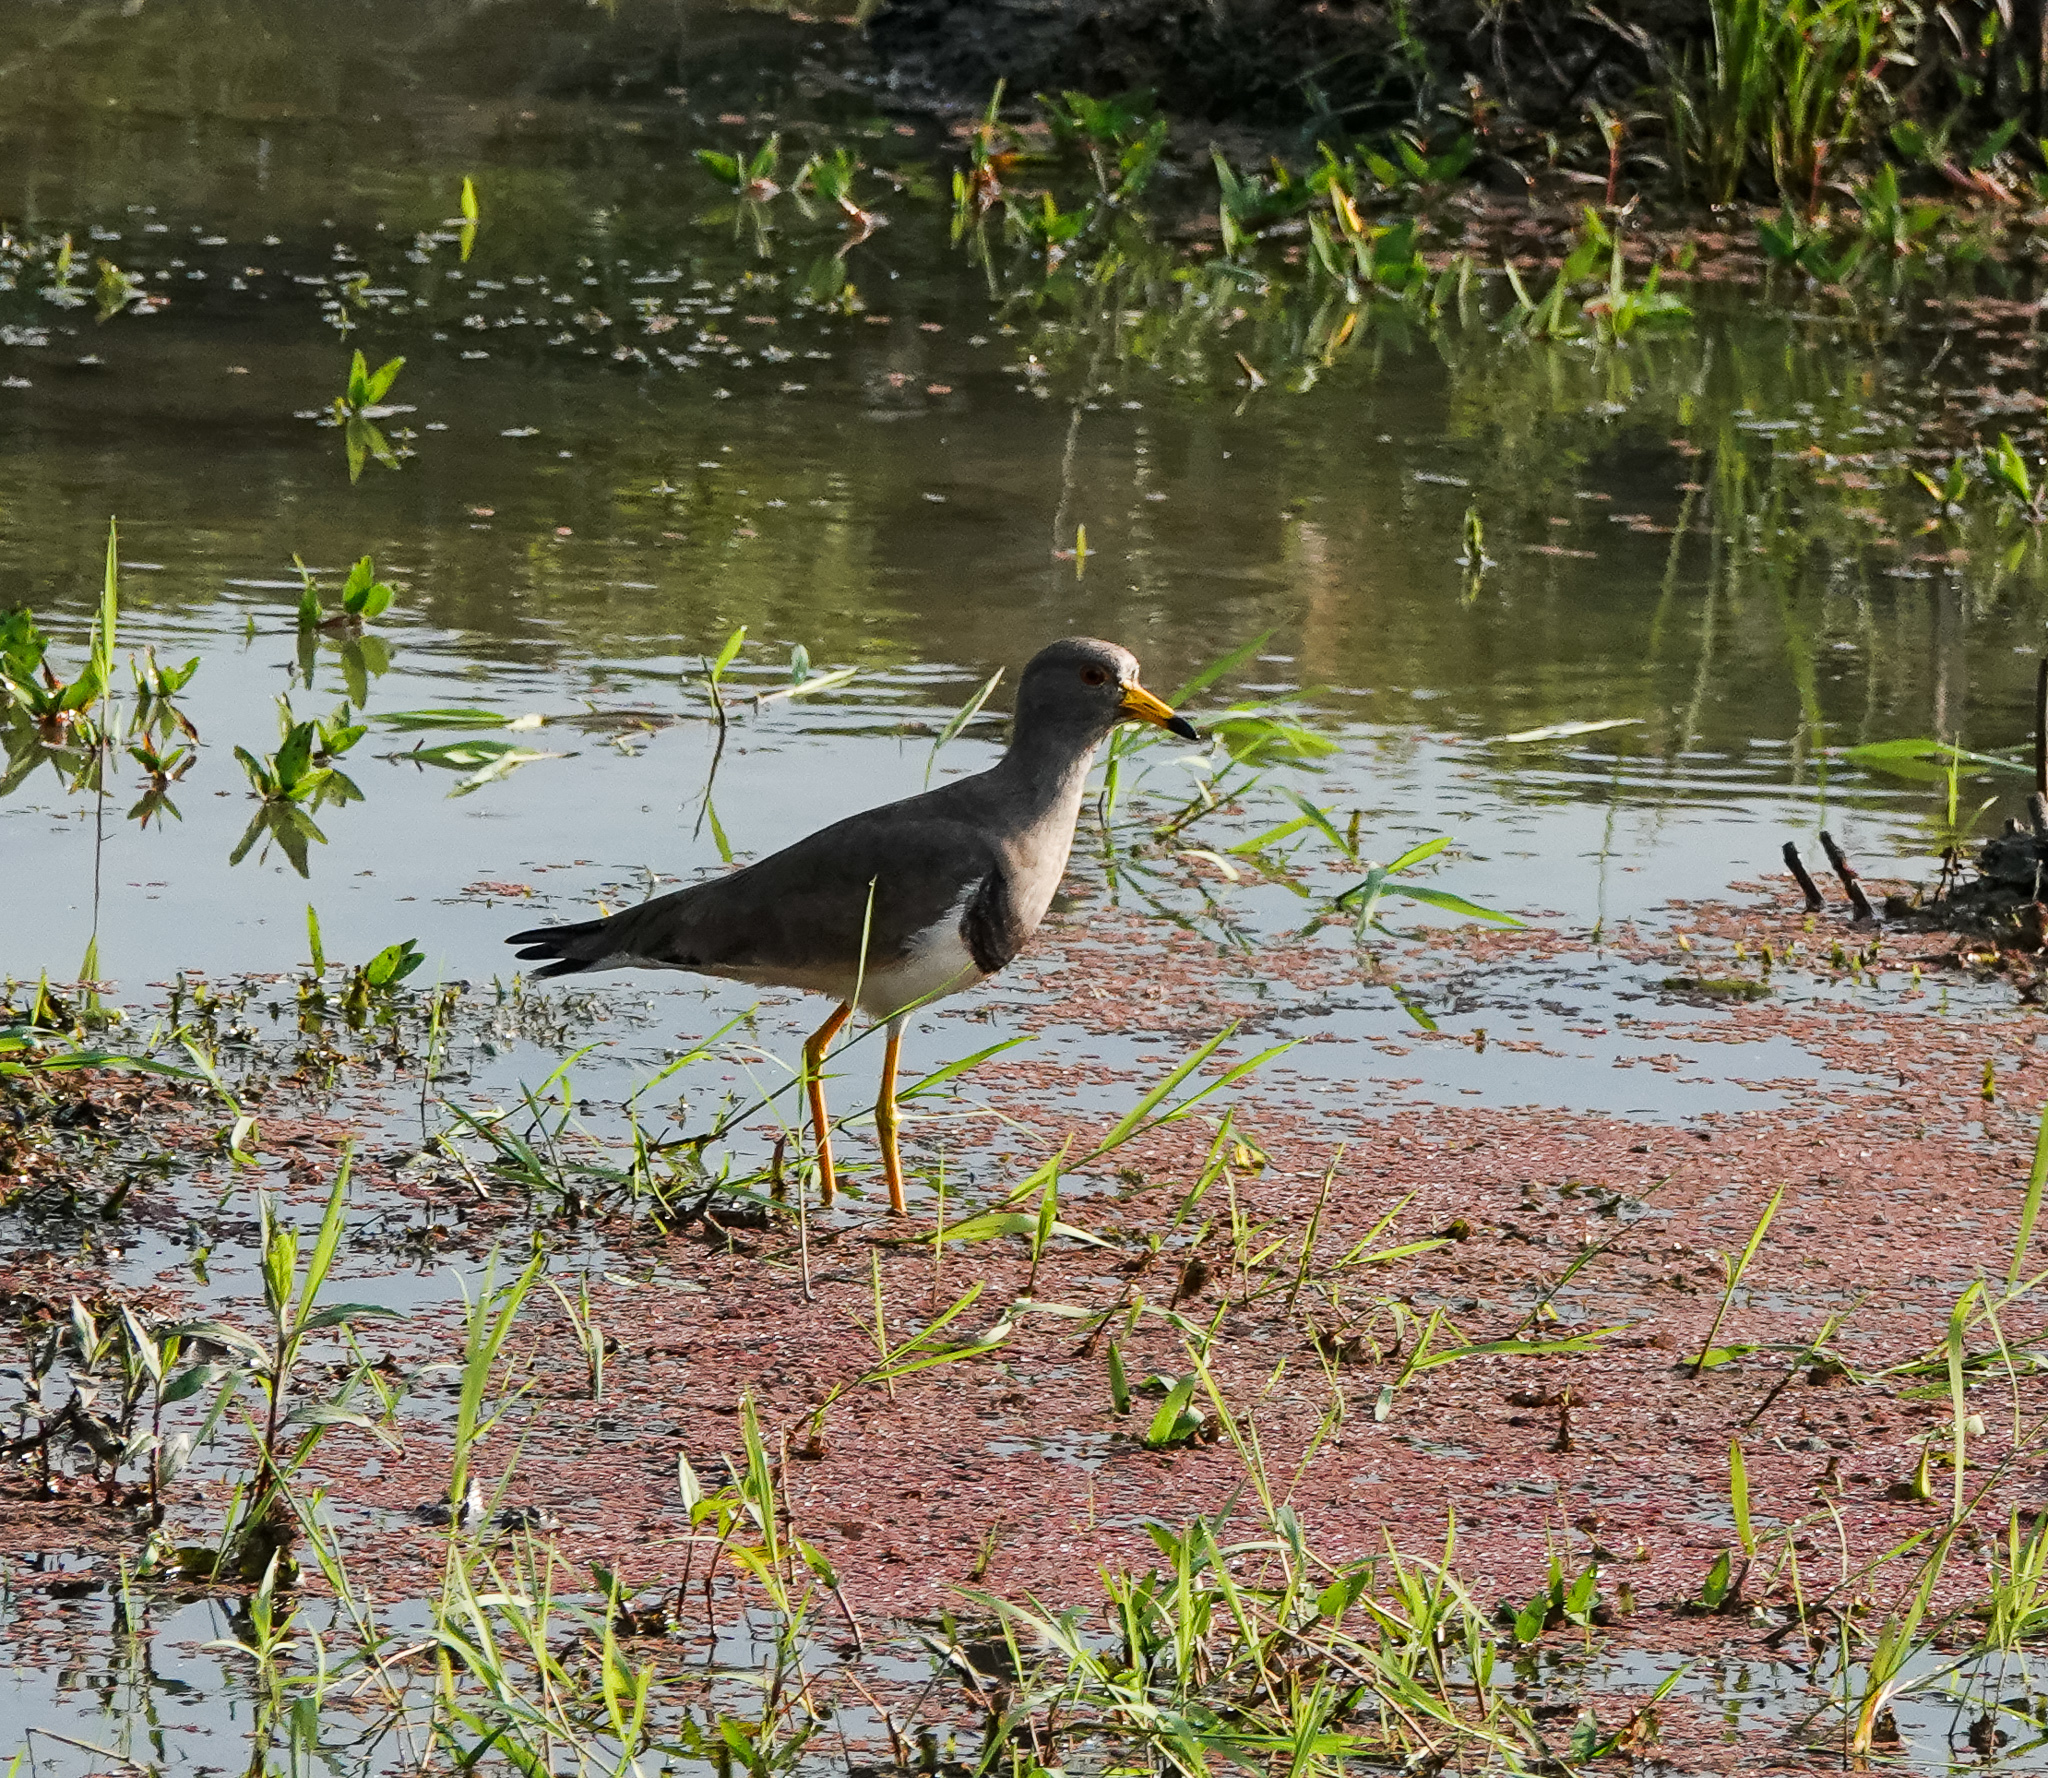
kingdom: Animalia
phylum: Chordata
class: Aves
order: Charadriiformes
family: Charadriidae
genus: Vanellus
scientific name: Vanellus cinereus
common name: Grey-headed lapwing
